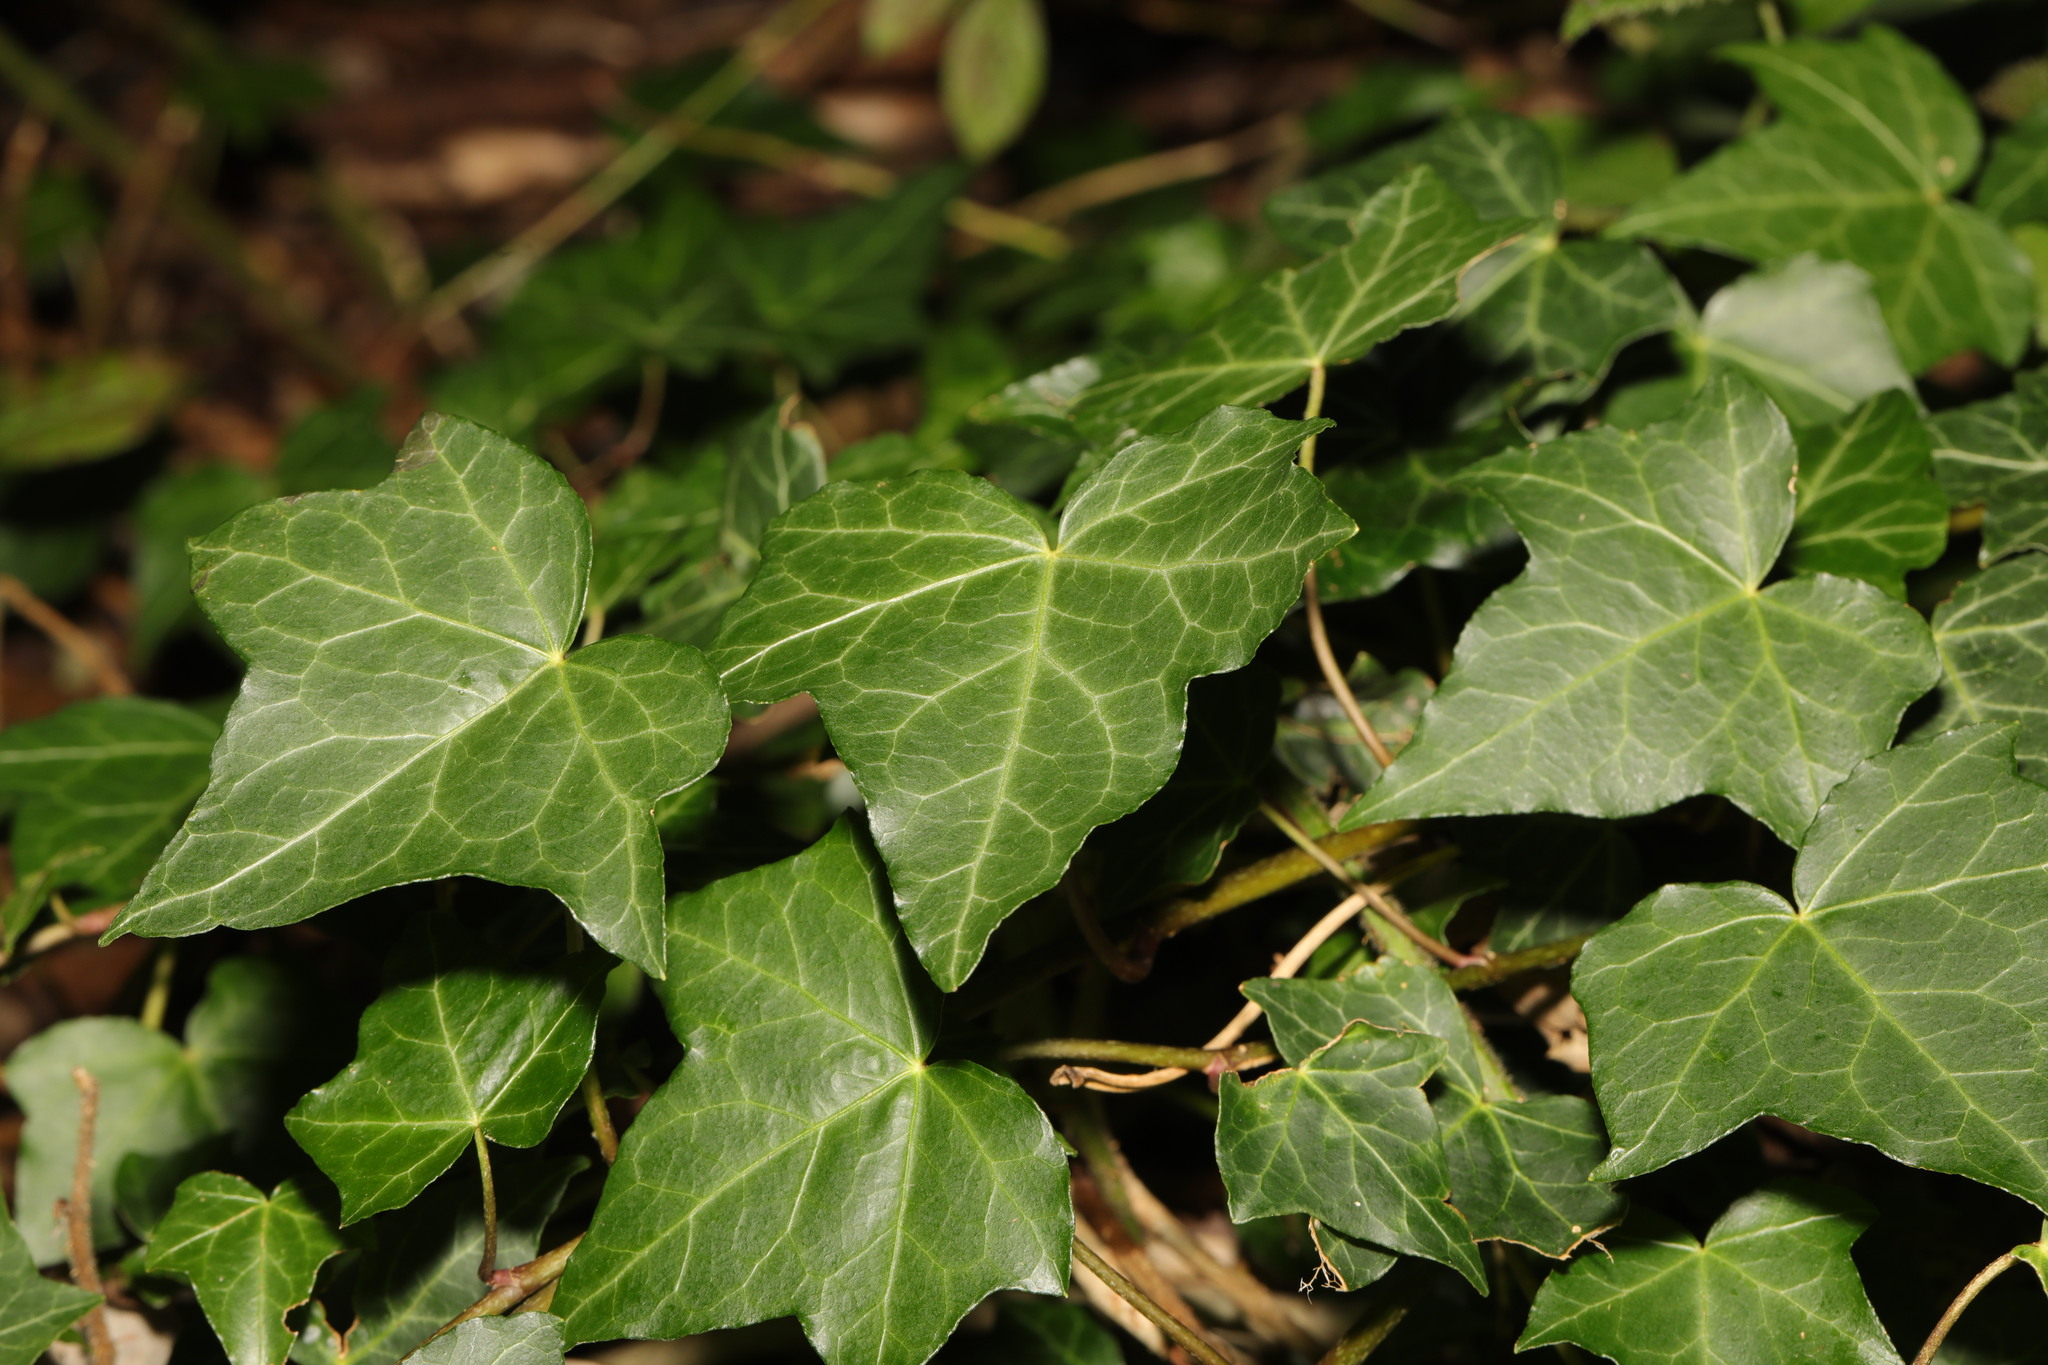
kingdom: Plantae
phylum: Tracheophyta
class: Magnoliopsida
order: Apiales
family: Araliaceae
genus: Hedera
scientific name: Hedera helix
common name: Ivy
